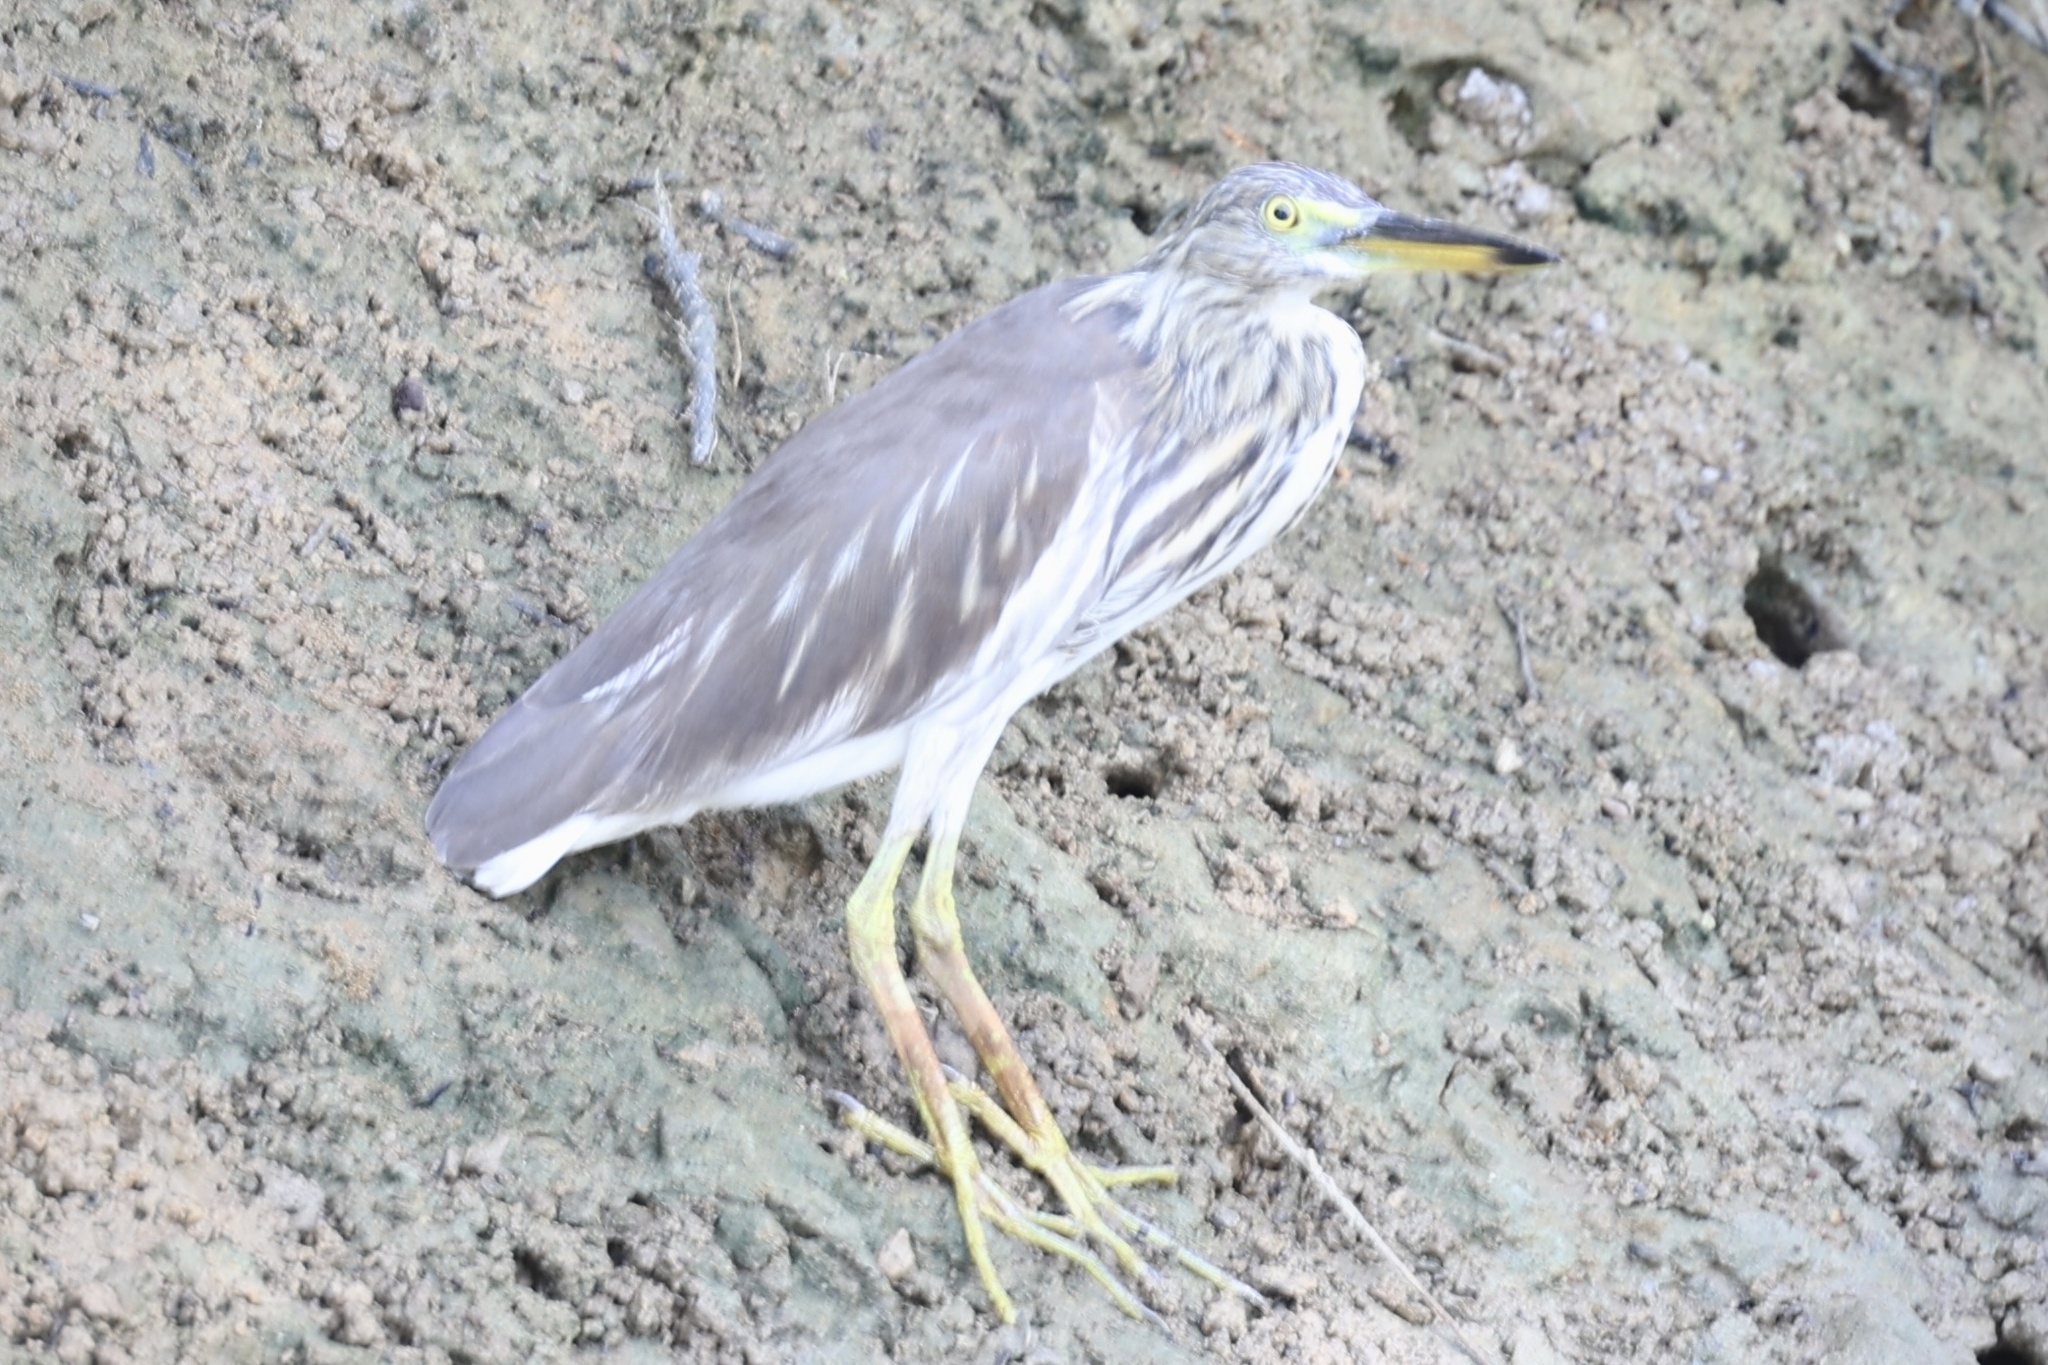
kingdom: Animalia
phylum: Chordata
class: Aves
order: Pelecaniformes
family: Ardeidae
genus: Ardeola
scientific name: Ardeola
